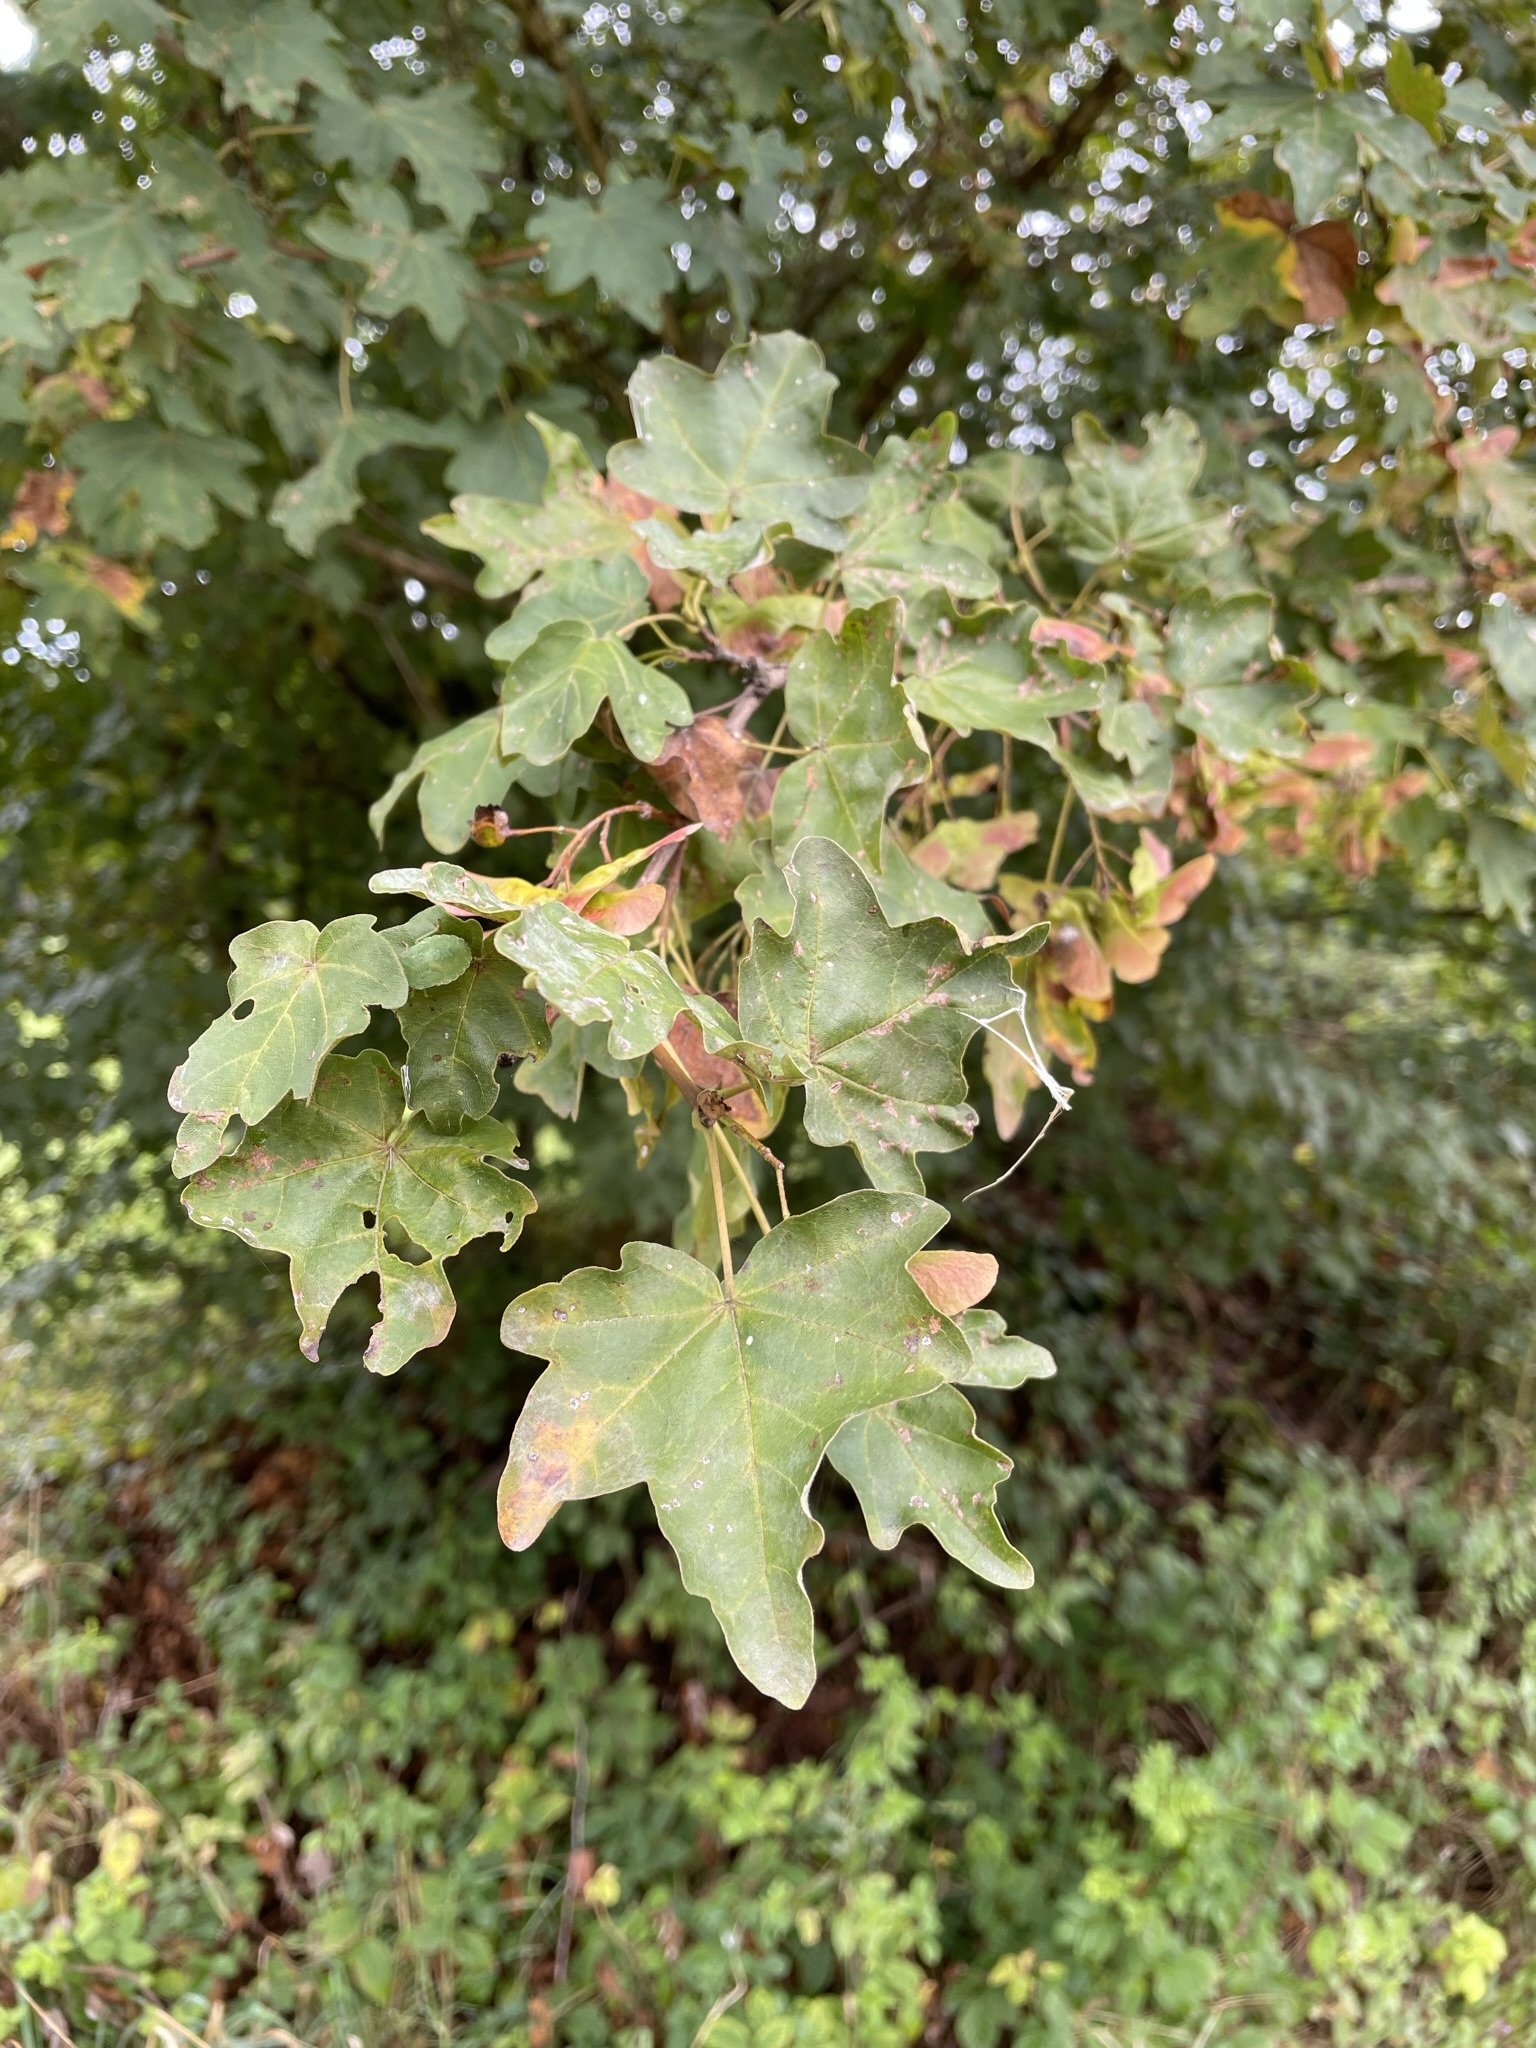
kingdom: Plantae
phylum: Tracheophyta
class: Magnoliopsida
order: Sapindales
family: Sapindaceae
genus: Acer
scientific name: Acer campestre
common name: Field maple
